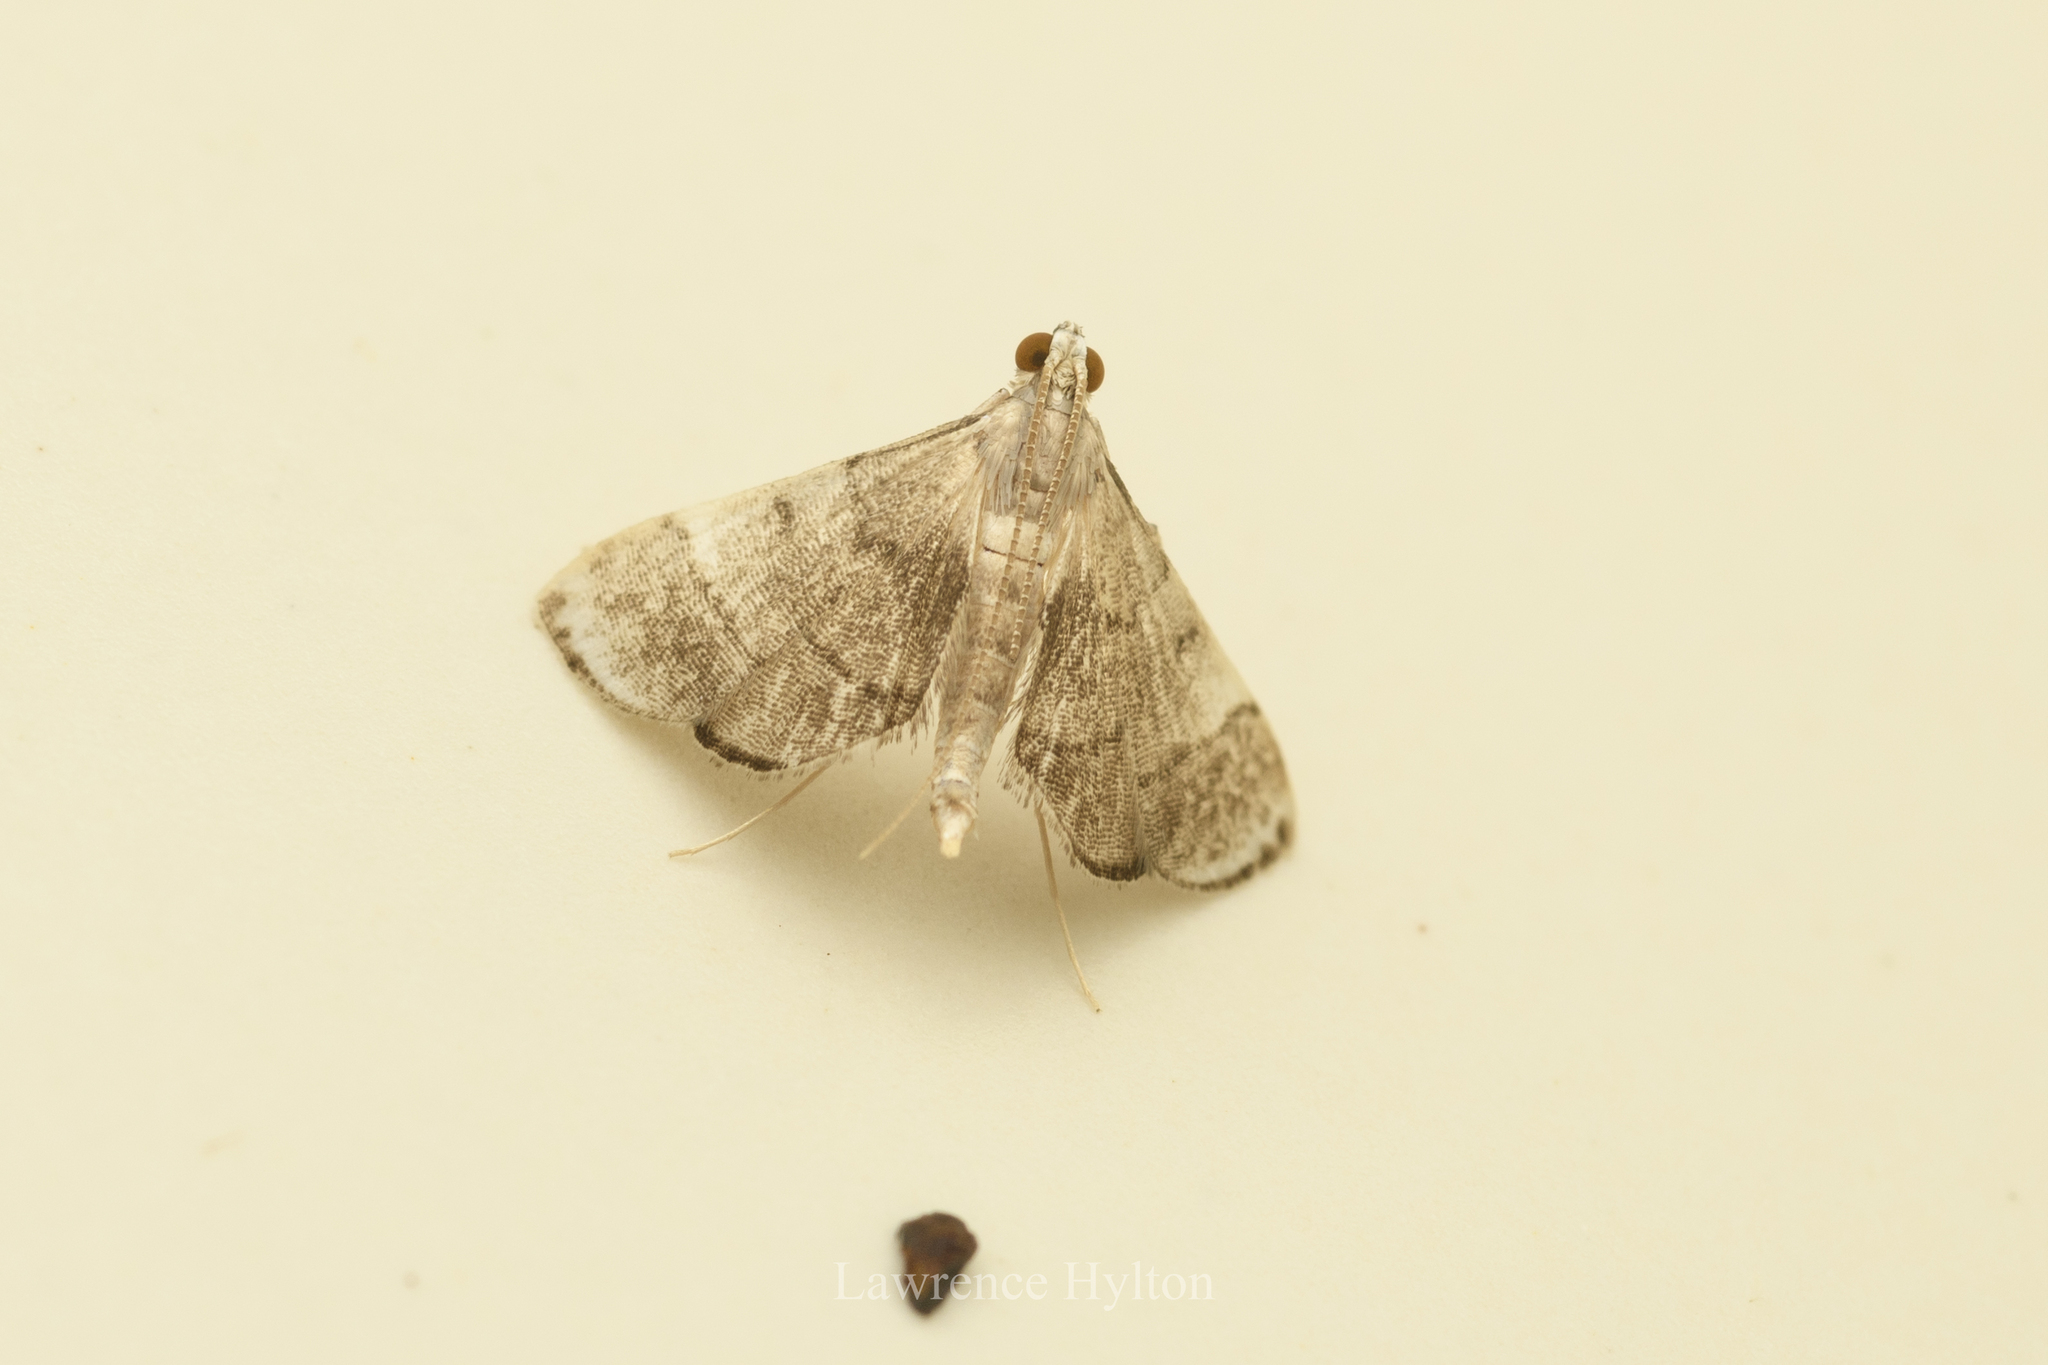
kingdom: Animalia
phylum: Arthropoda
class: Insecta
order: Lepidoptera
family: Crambidae
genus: Cangetta
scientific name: Cangetta hartoghialis
